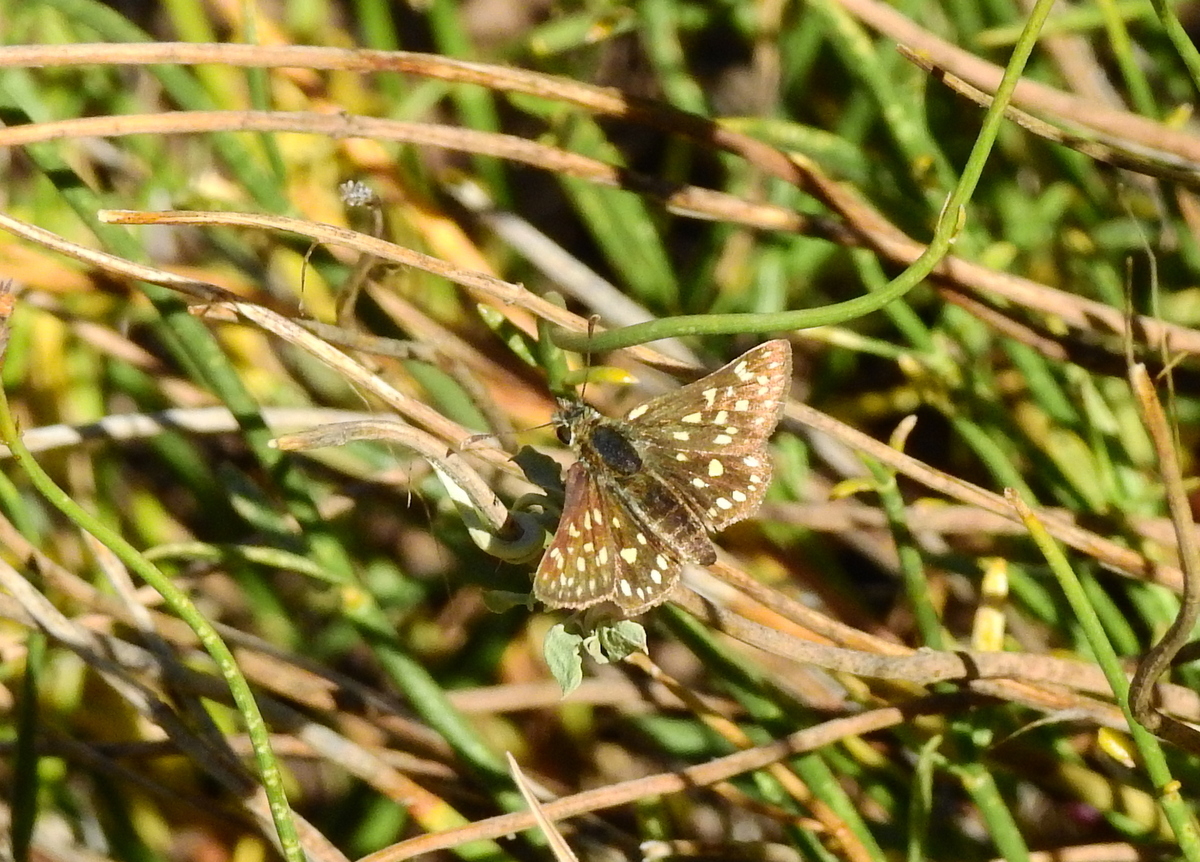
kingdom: Animalia
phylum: Arthropoda
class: Insecta
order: Lepidoptera
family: Hesperiidae
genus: Butleria
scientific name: Butleria elwesi
